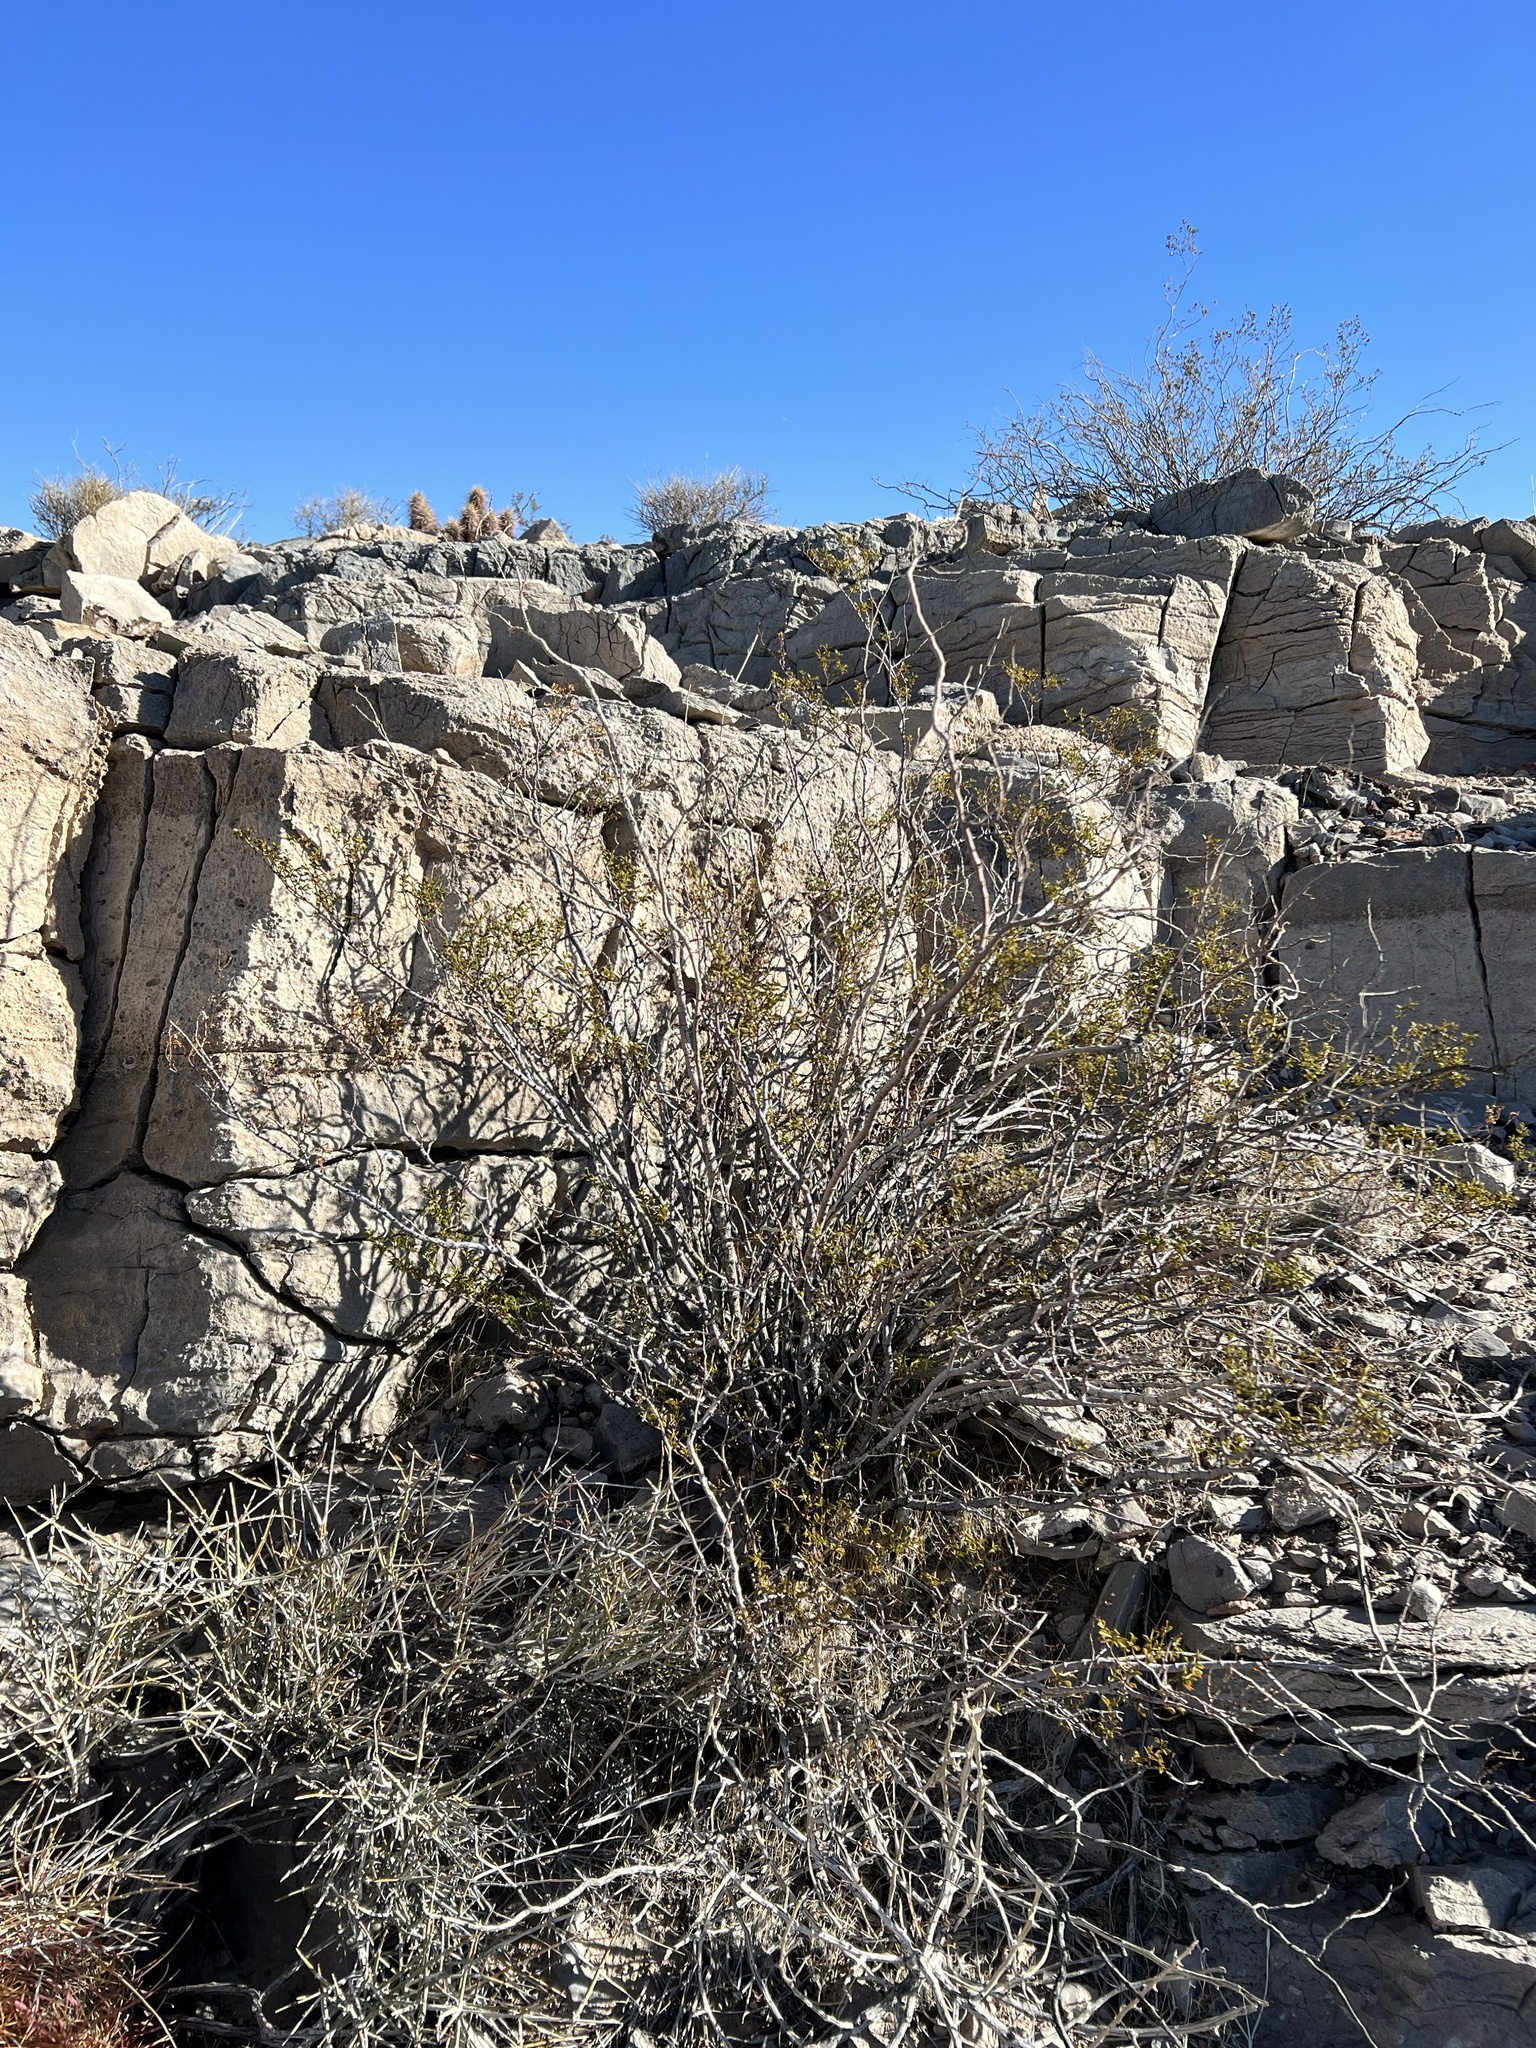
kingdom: Plantae
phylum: Tracheophyta
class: Magnoliopsida
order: Zygophyllales
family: Zygophyllaceae
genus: Larrea
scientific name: Larrea tridentata
